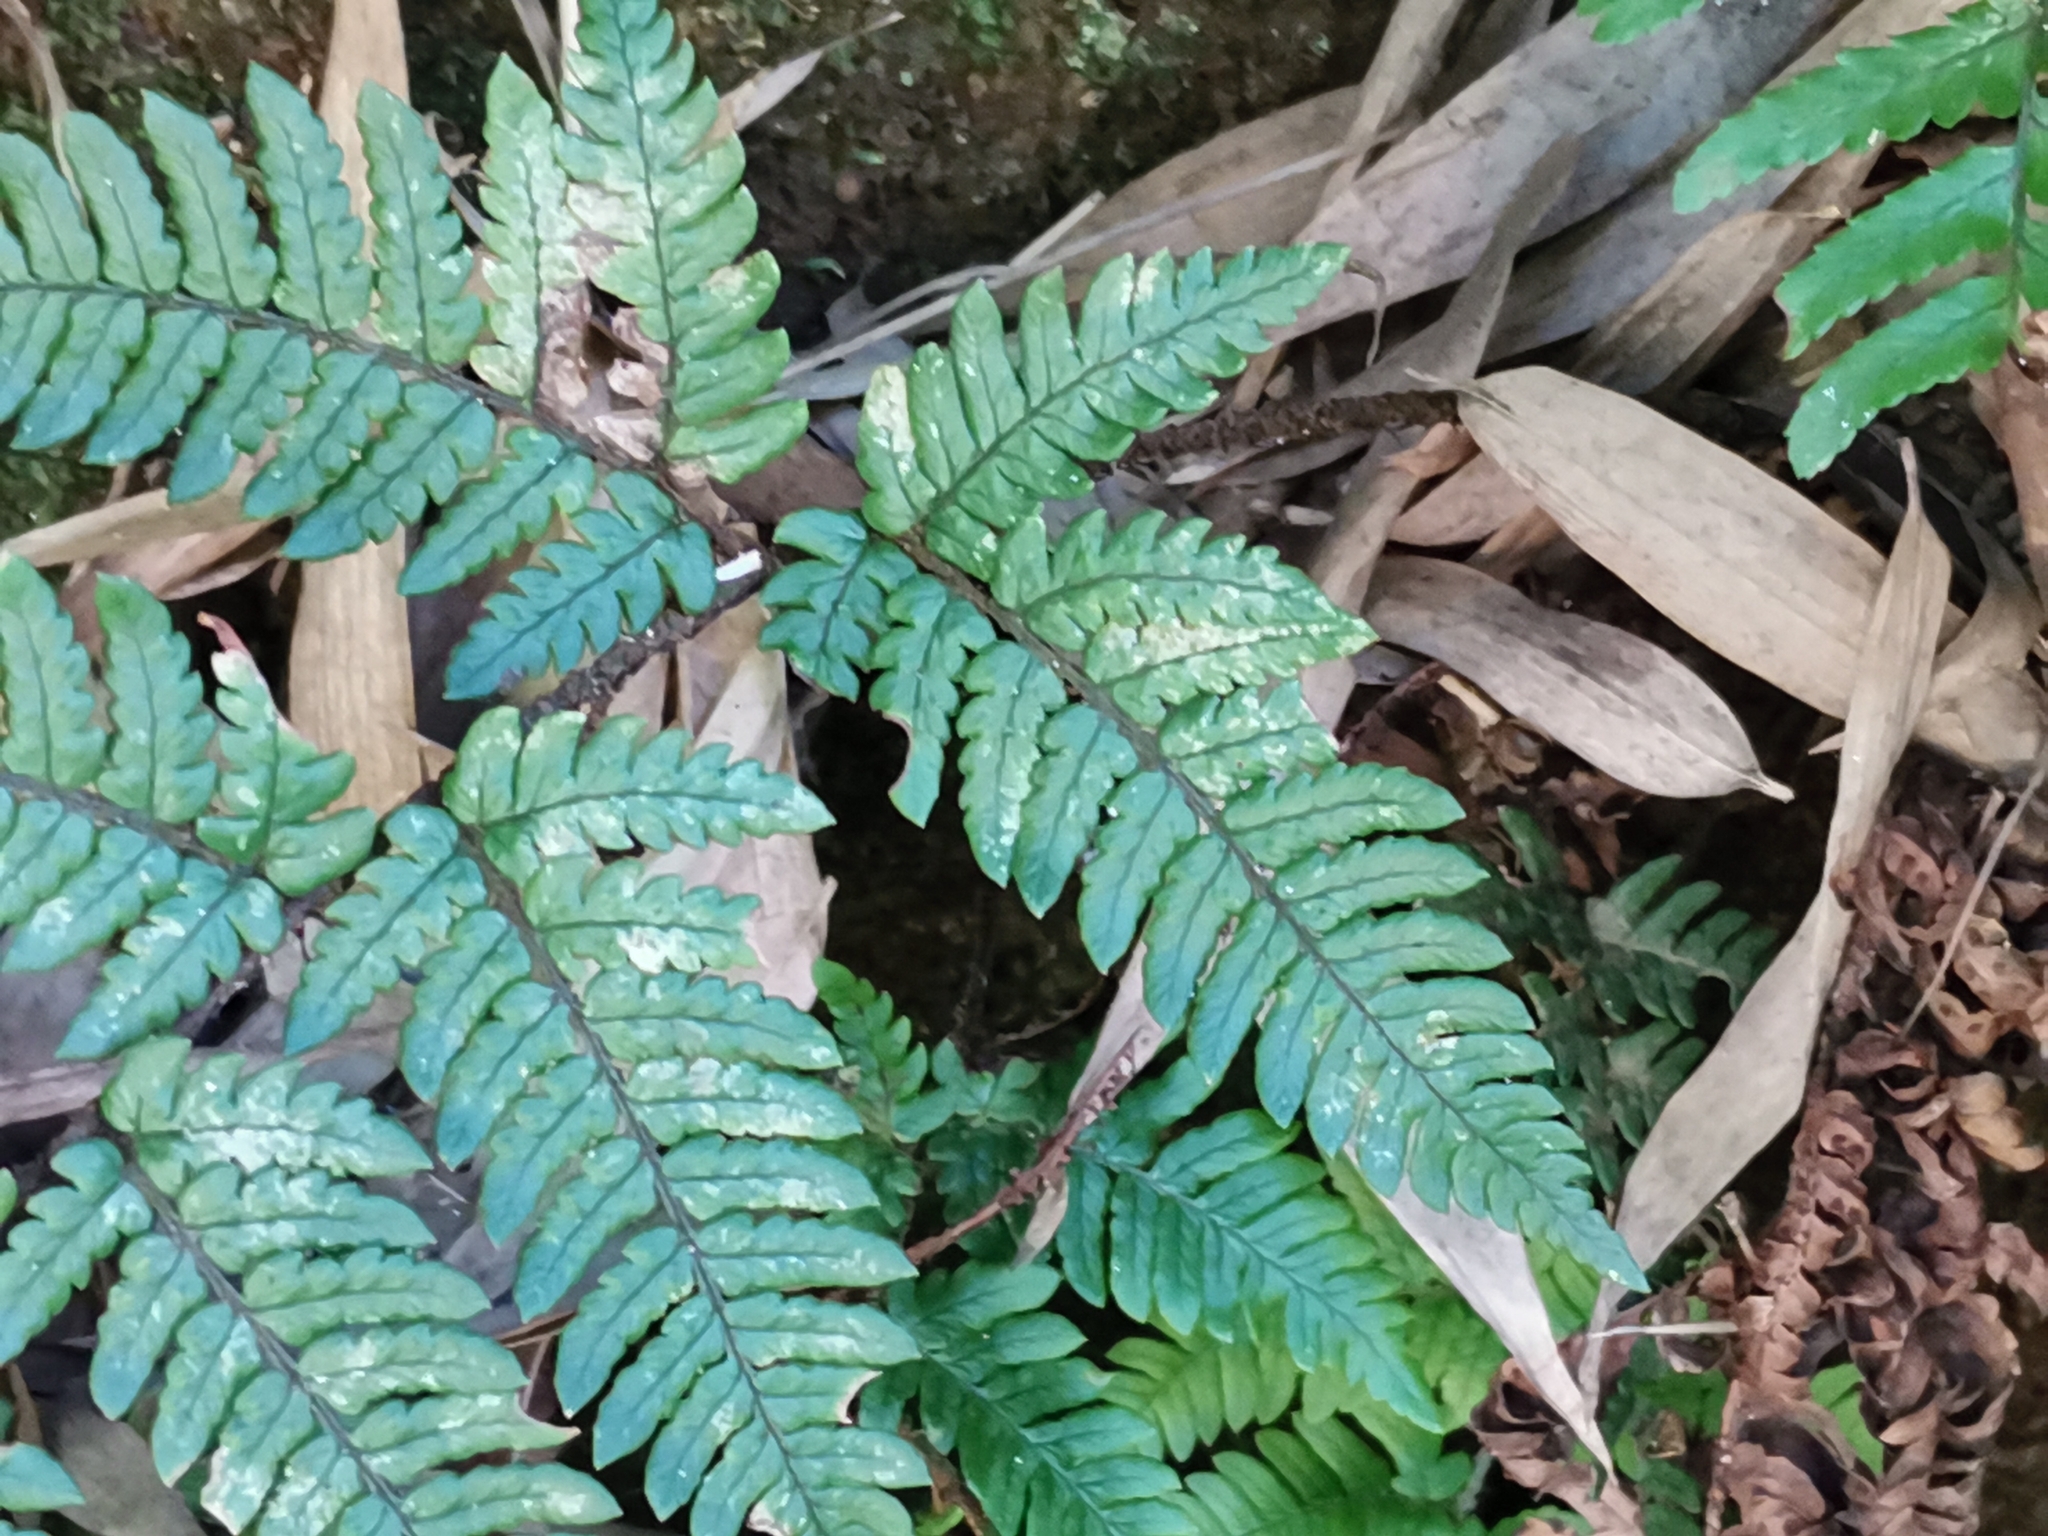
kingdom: Plantae
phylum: Tracheophyta
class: Polypodiopsida
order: Polypodiales
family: Dryopteridaceae
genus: Dryopteris
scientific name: Dryopteris bissetiana
